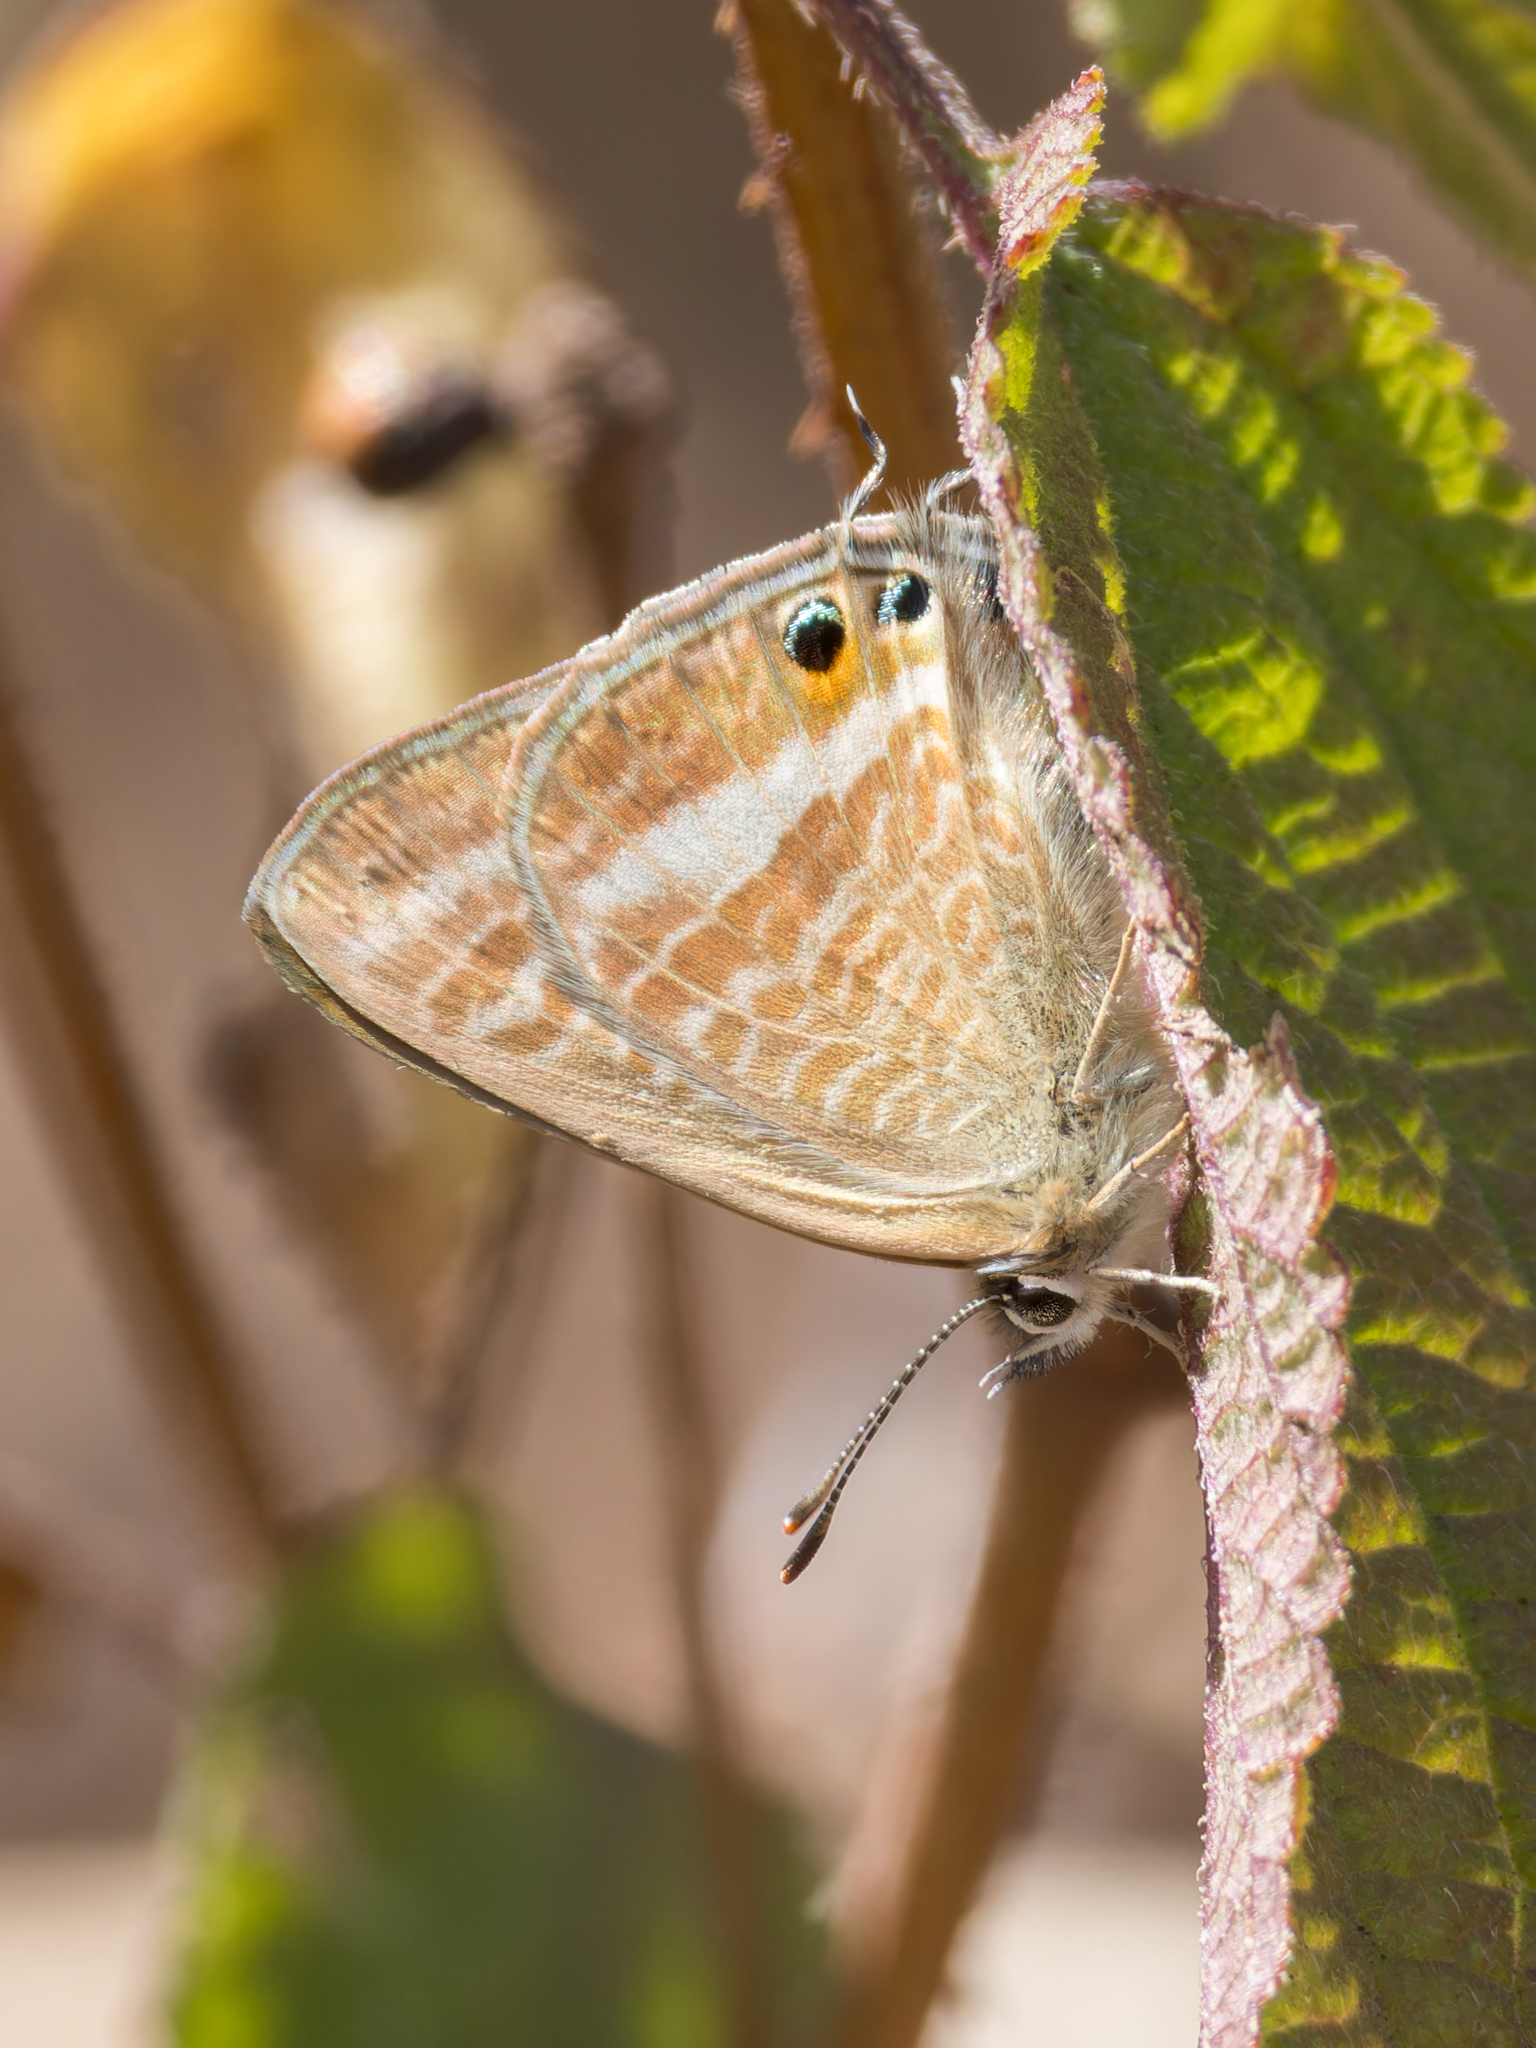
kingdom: Animalia
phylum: Arthropoda
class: Insecta
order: Lepidoptera
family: Lycaenidae
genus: Lampides
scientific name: Lampides boeticus
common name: Long-tailed blue
